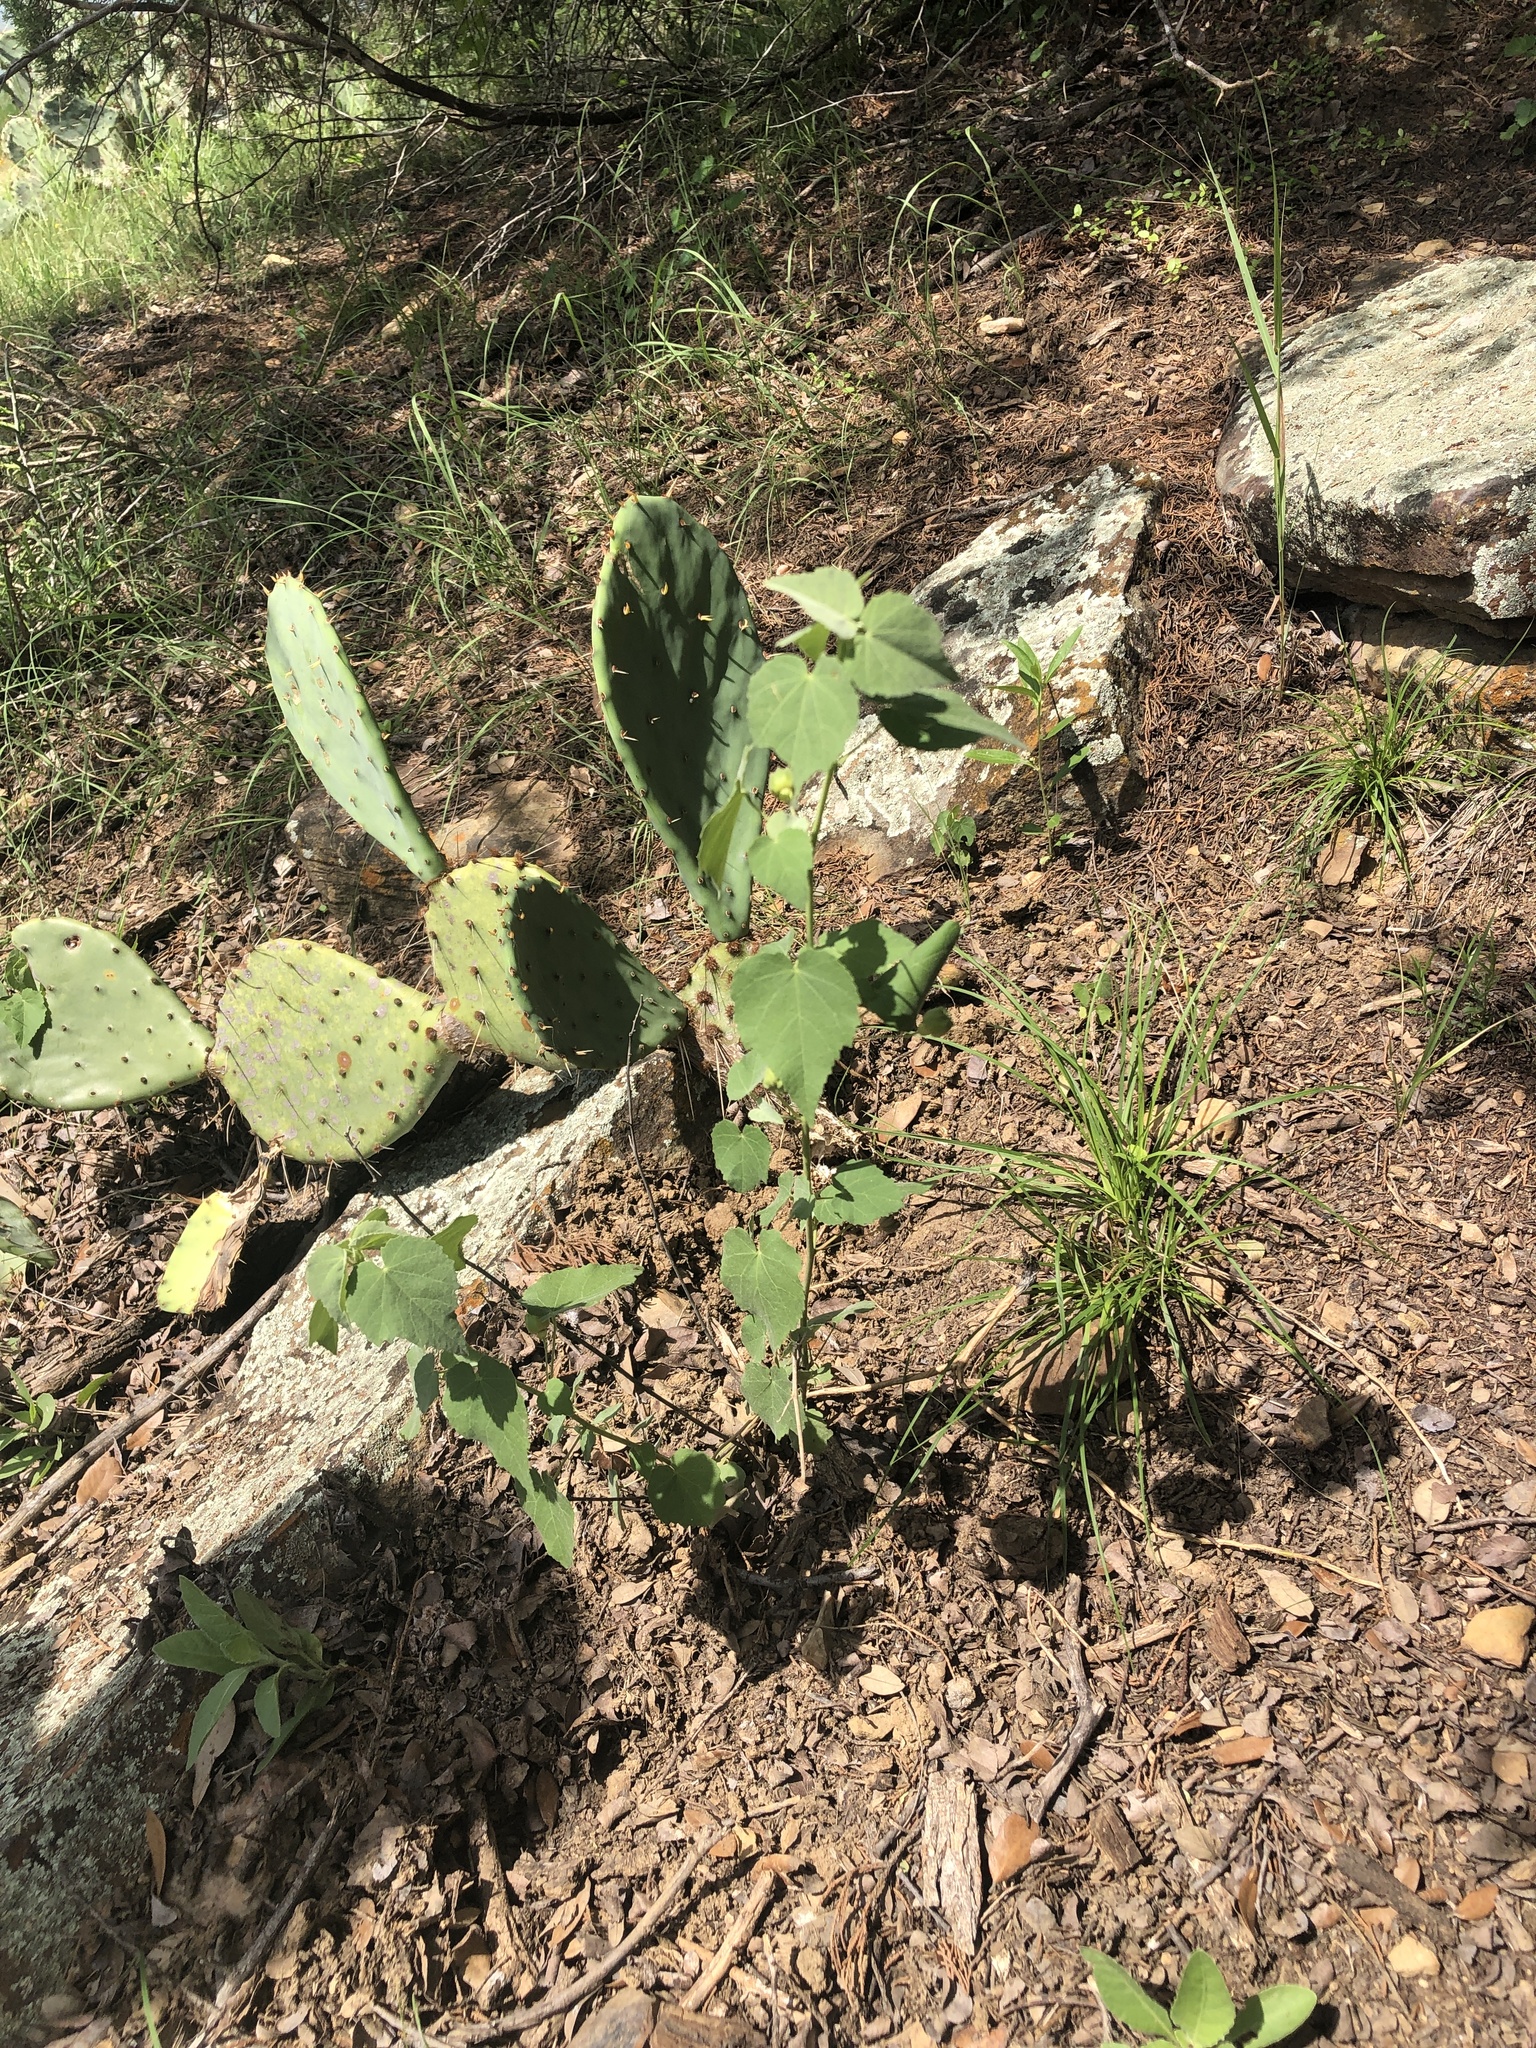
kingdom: Plantae
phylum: Tracheophyta
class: Magnoliopsida
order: Malvales
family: Malvaceae
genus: Abutilon
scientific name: Abutilon fruticosum
